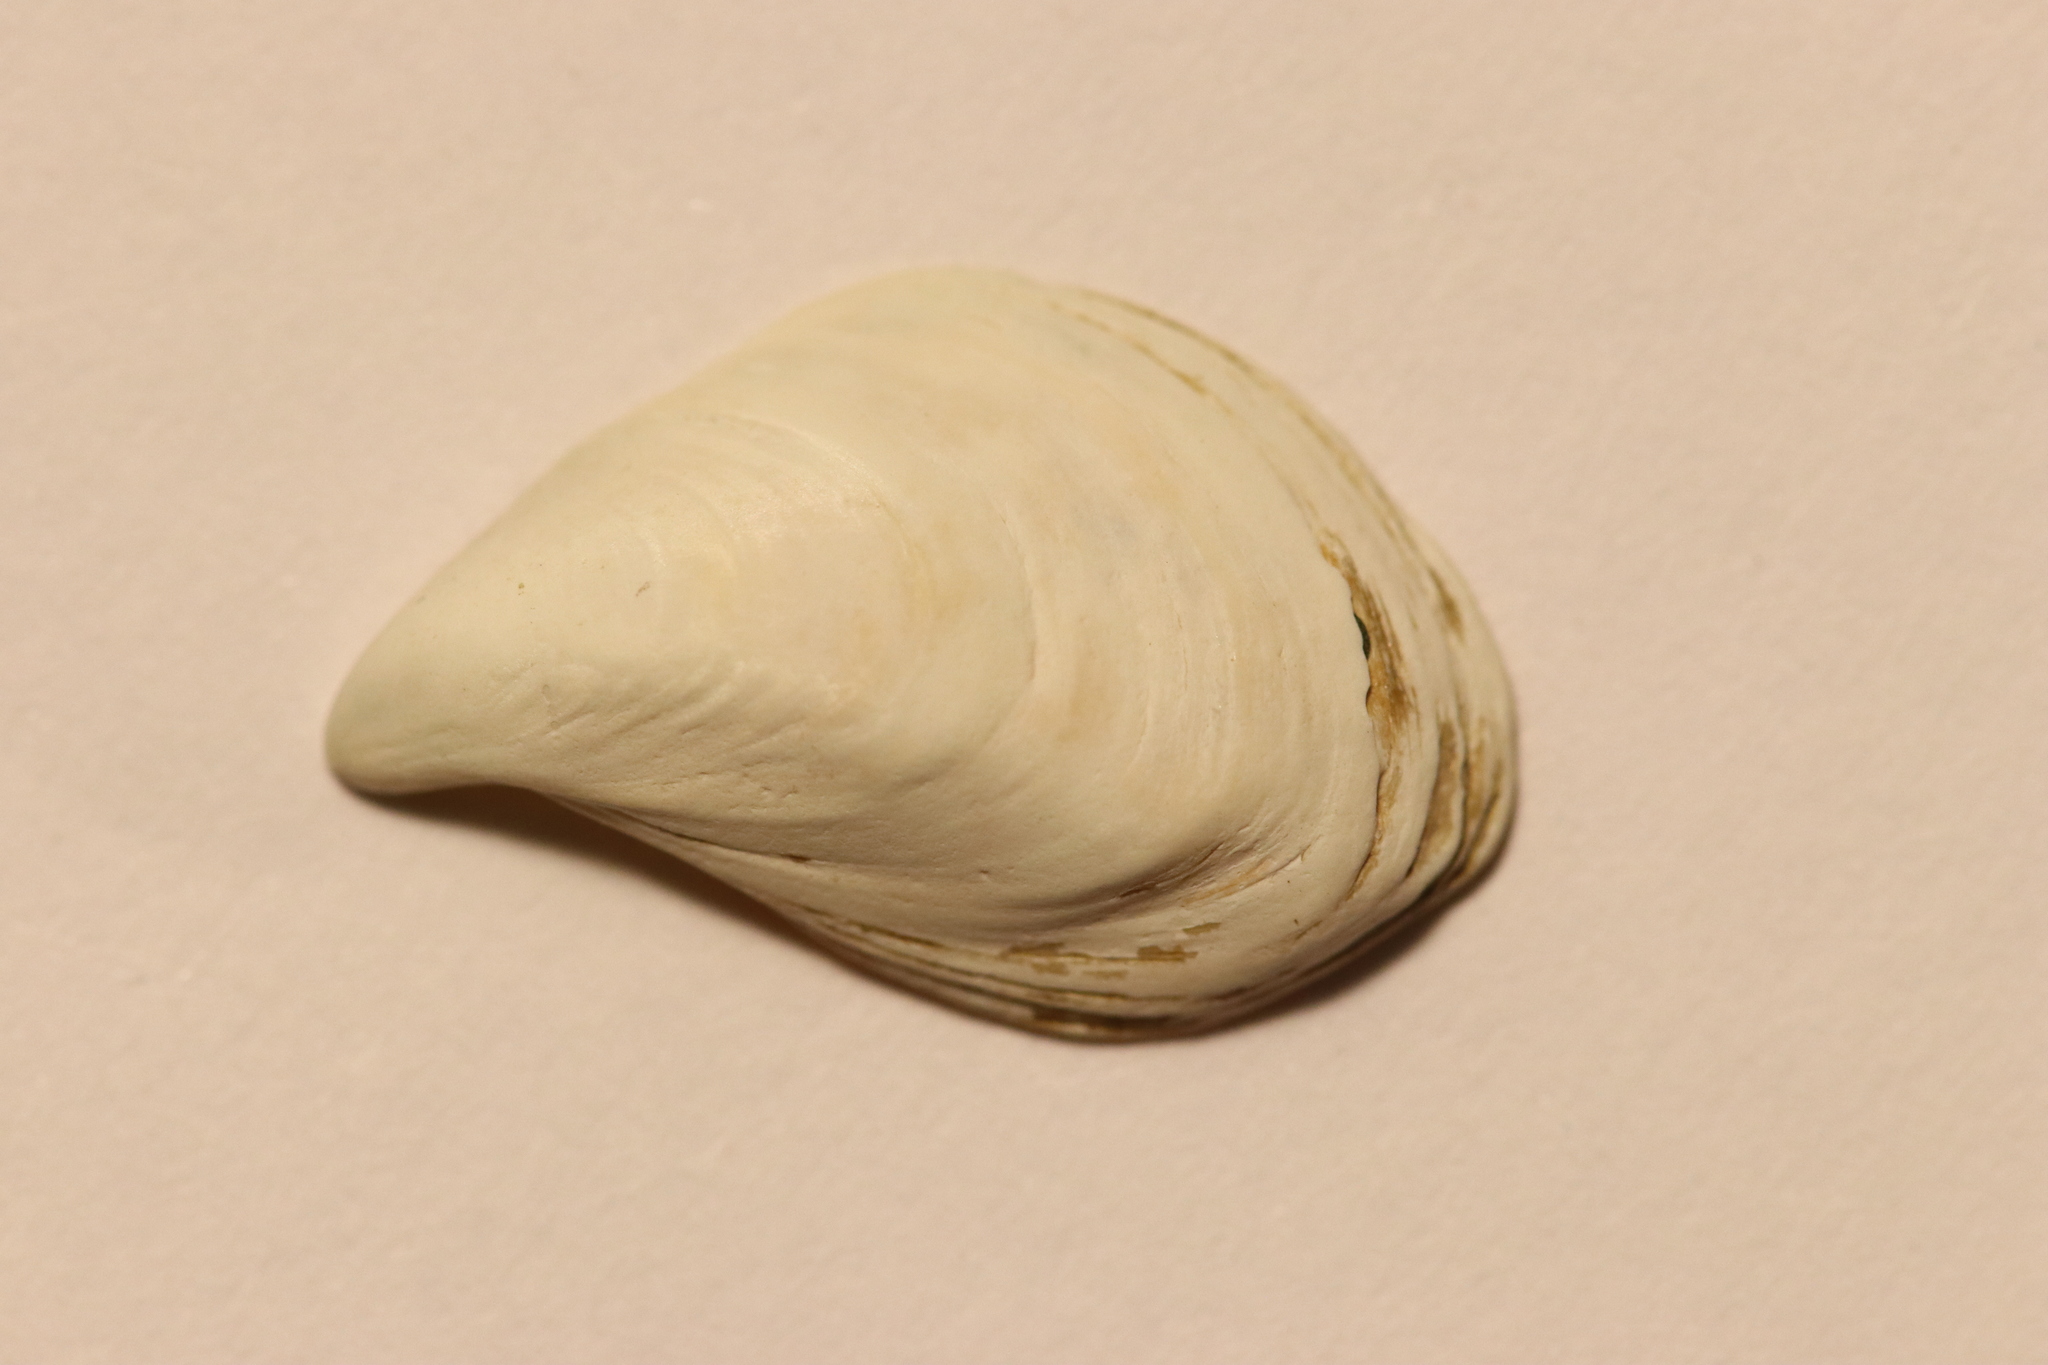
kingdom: Animalia
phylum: Mollusca
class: Bivalvia
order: Myida
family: Dreissenidae
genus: Dreissena
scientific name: Dreissena bugensis
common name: Quagga mussel
